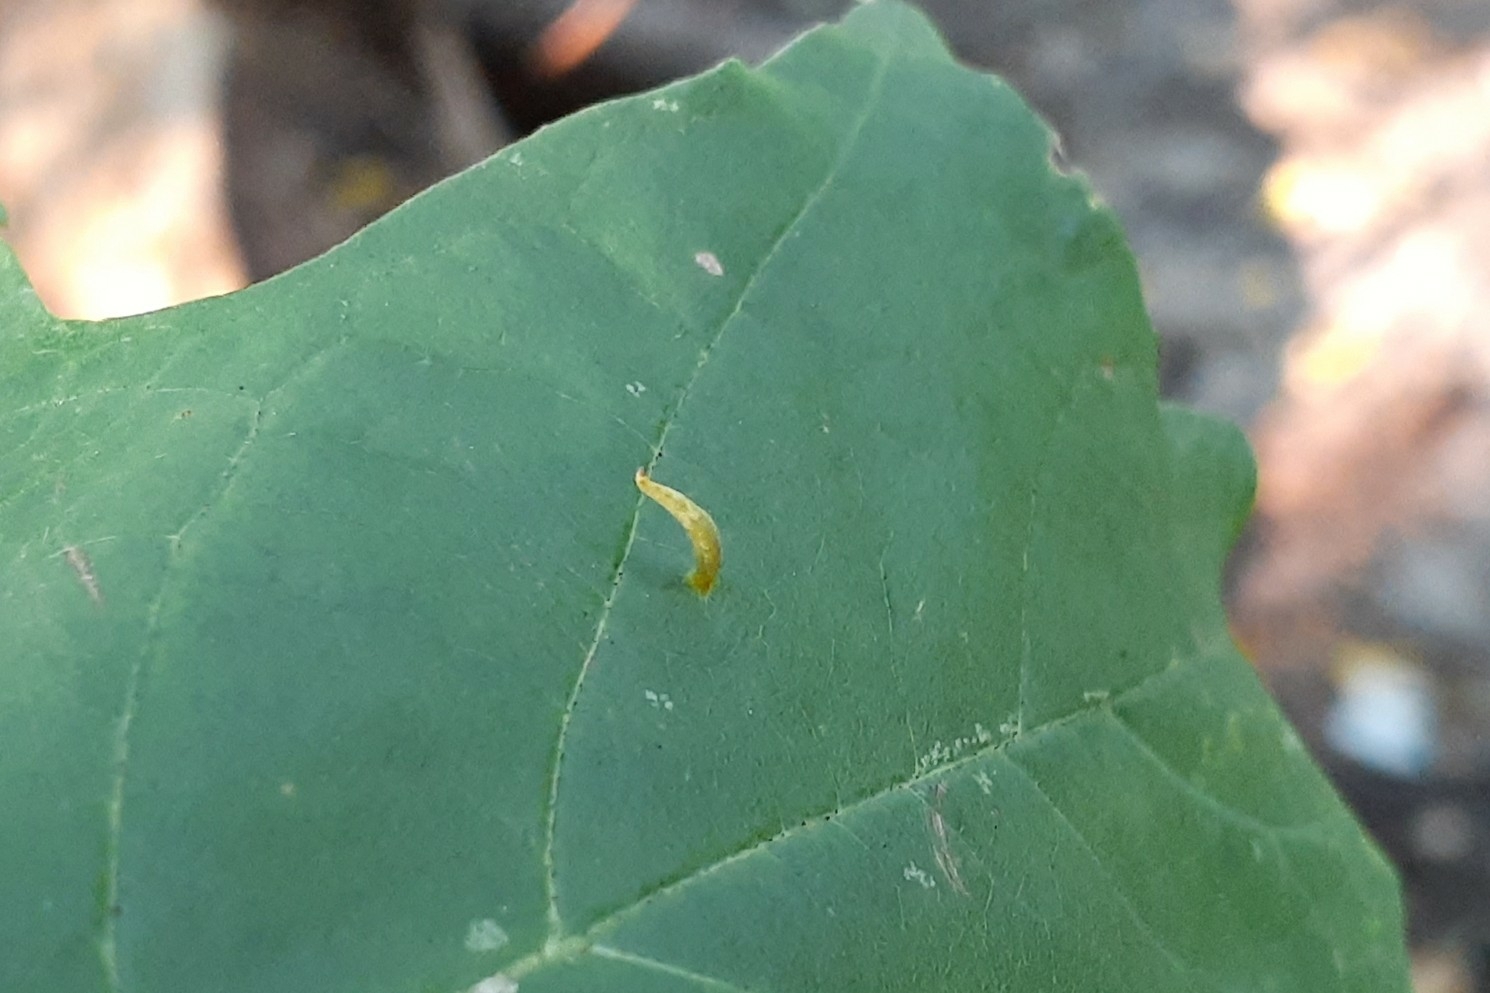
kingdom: Animalia
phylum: Arthropoda
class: Arachnida
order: Trombidiformes
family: Eriophyidae
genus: Vasates
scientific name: Vasates aceriscrumena
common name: Maple spindle gall mite
